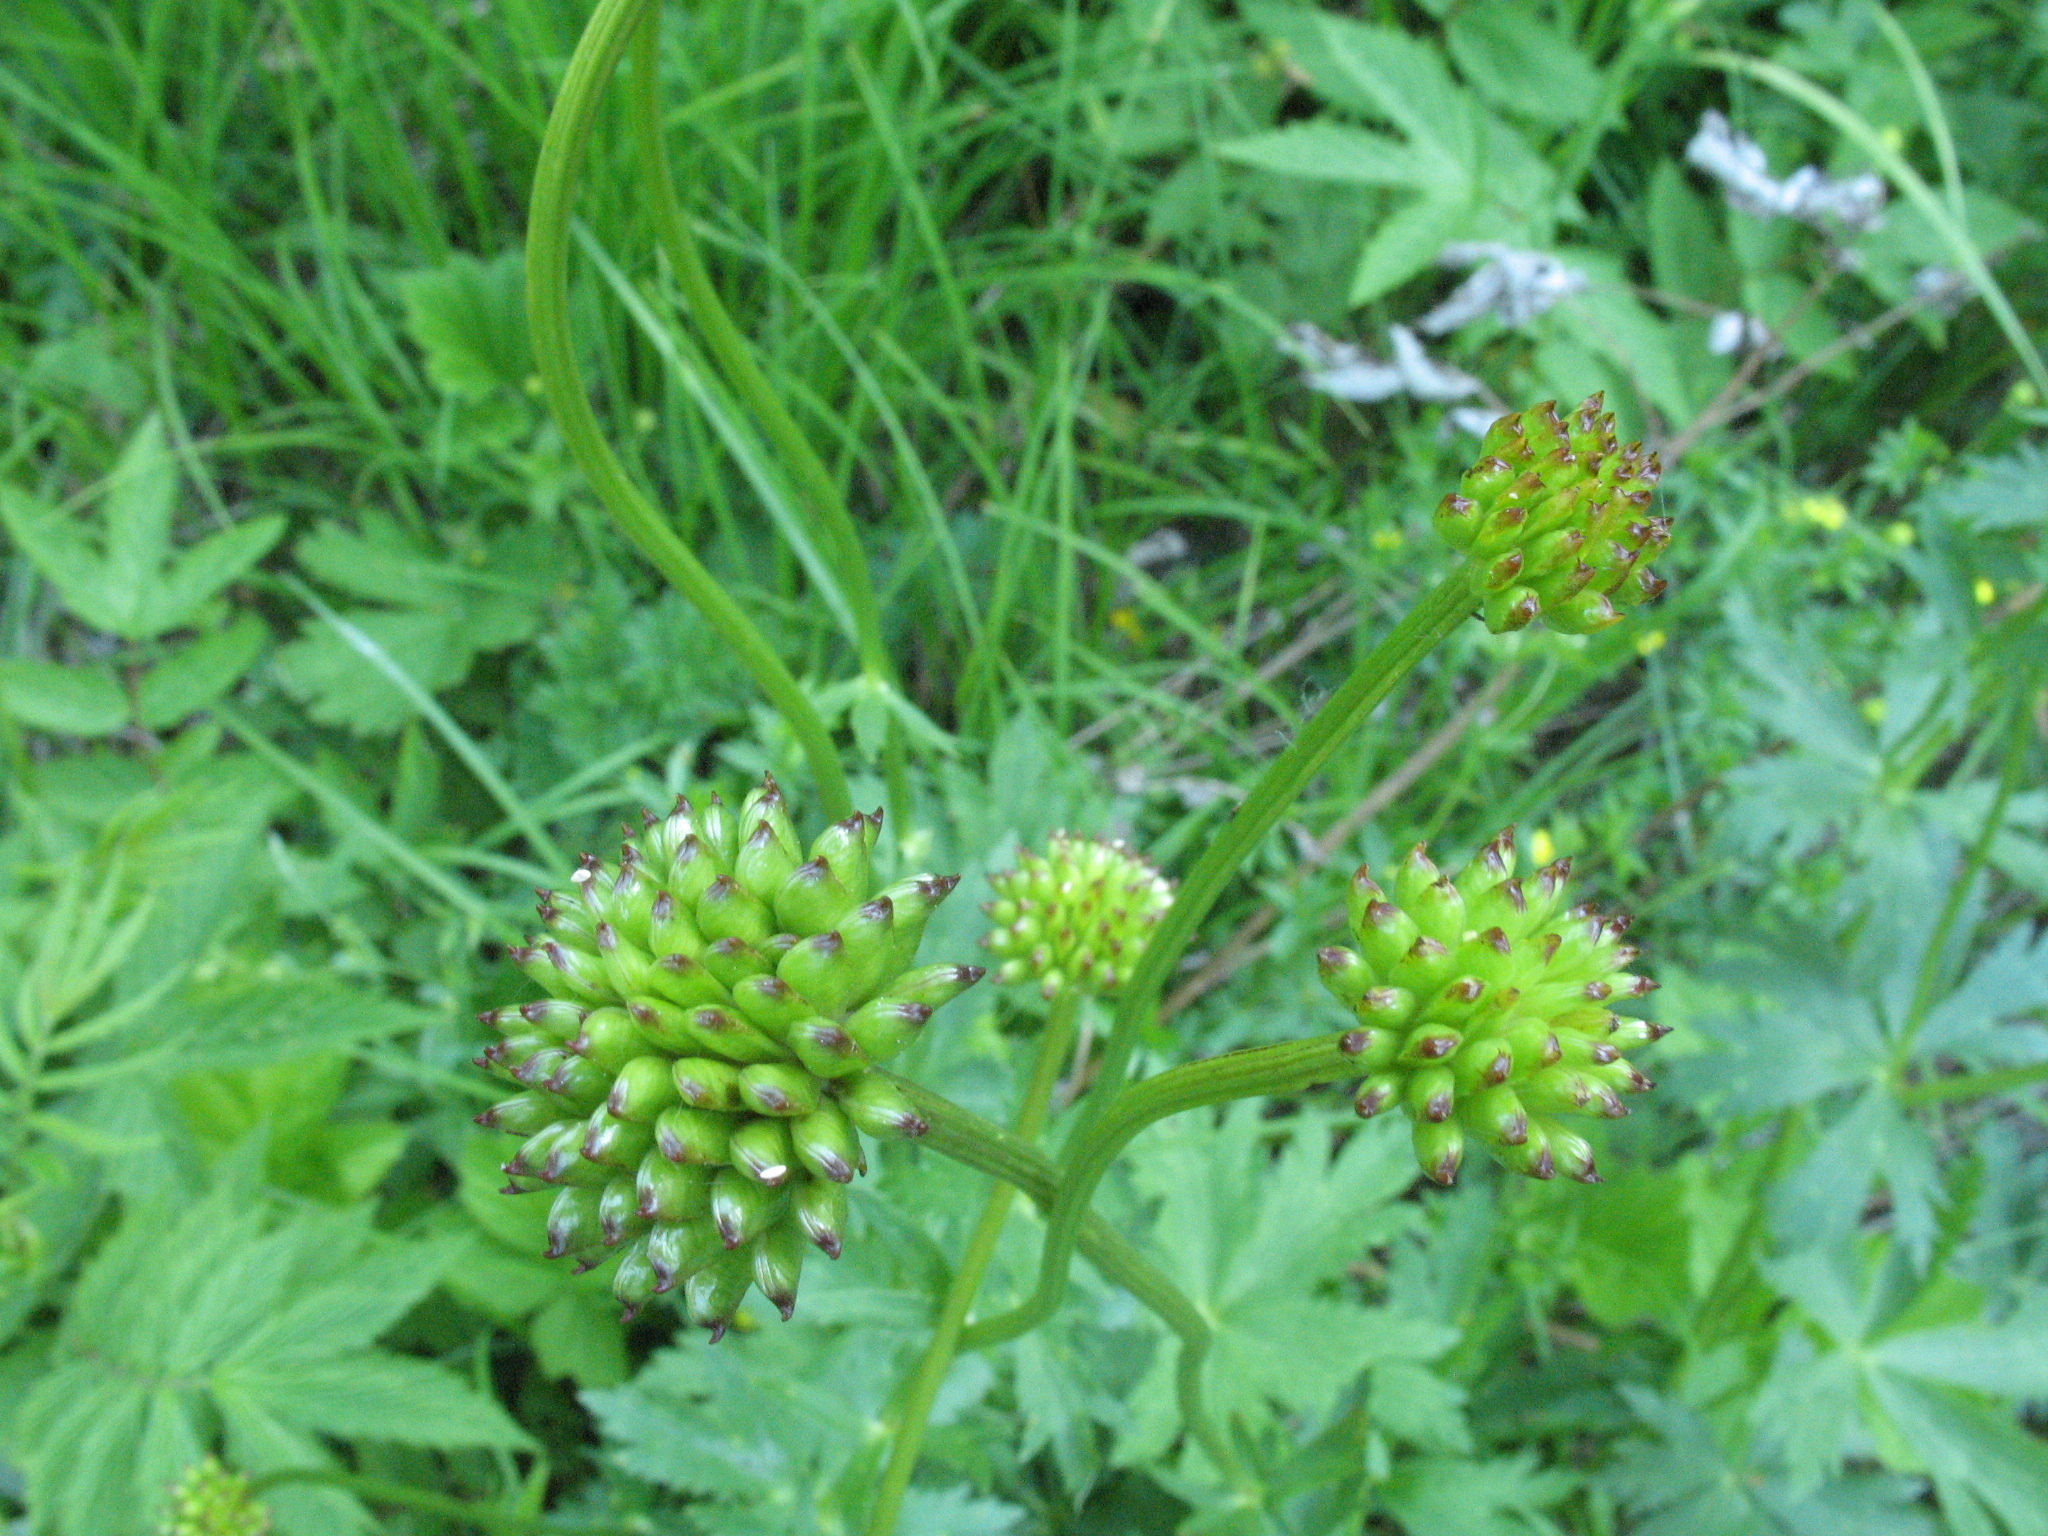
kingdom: Plantae
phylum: Tracheophyta
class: Magnoliopsida
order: Ranunculales
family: Ranunculaceae
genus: Trollius
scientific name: Trollius europaeus
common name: European globeflower
